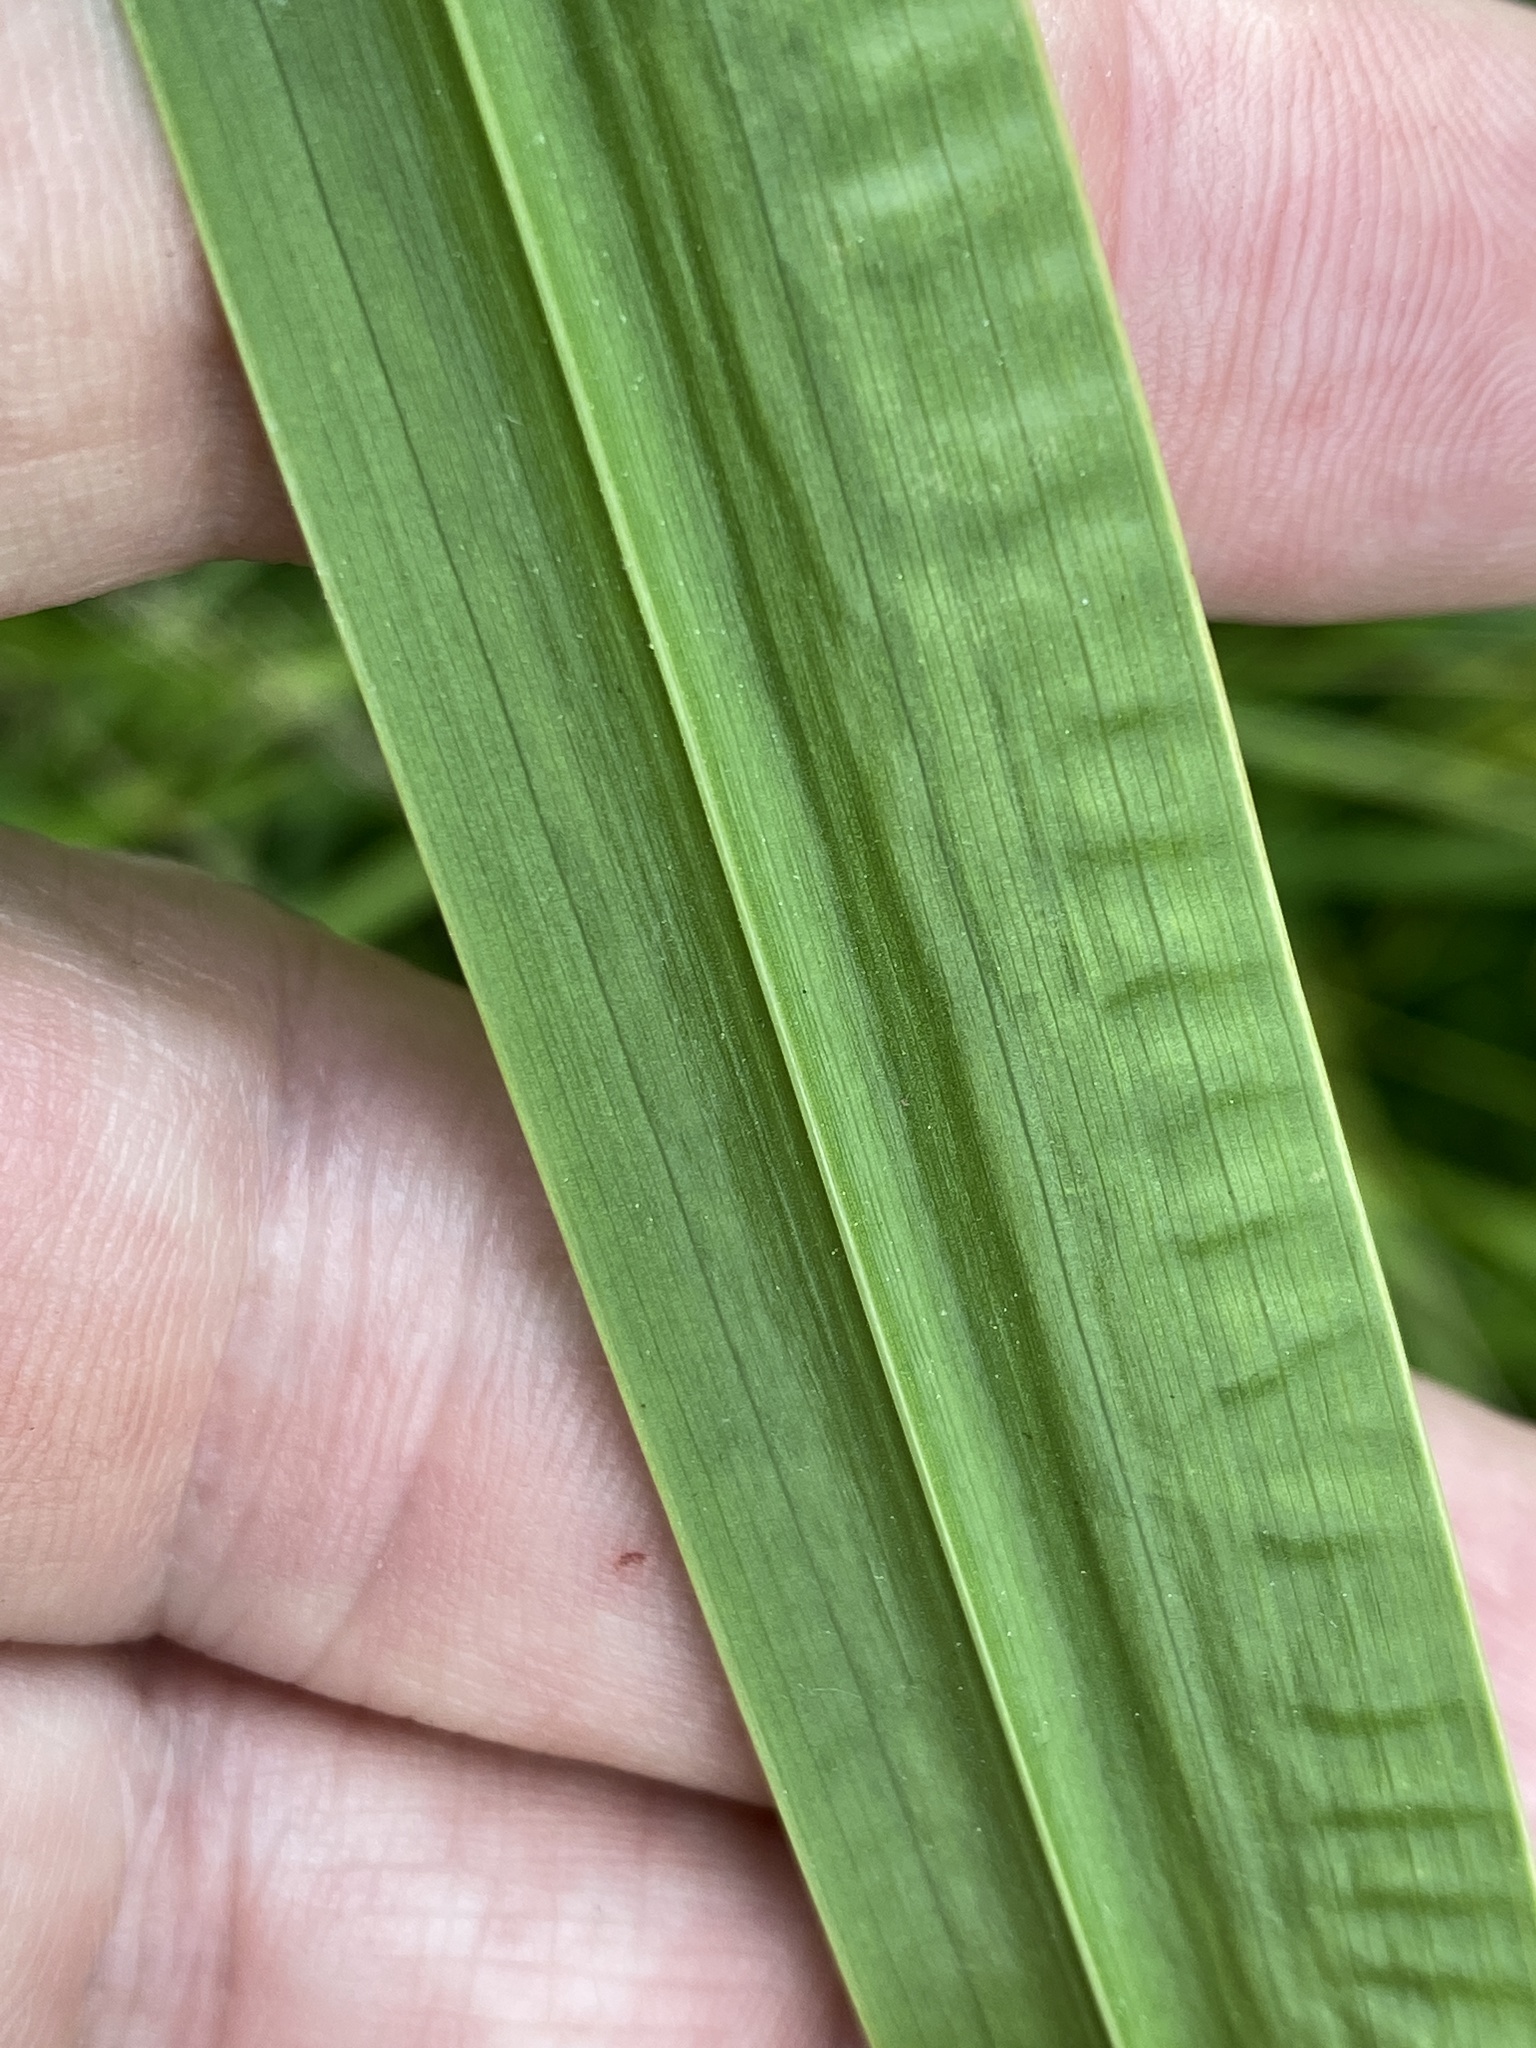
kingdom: Plantae
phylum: Tracheophyta
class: Liliopsida
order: Acorales
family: Acoraceae
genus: Acorus
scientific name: Acorus calamus
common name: Sweet-flag
